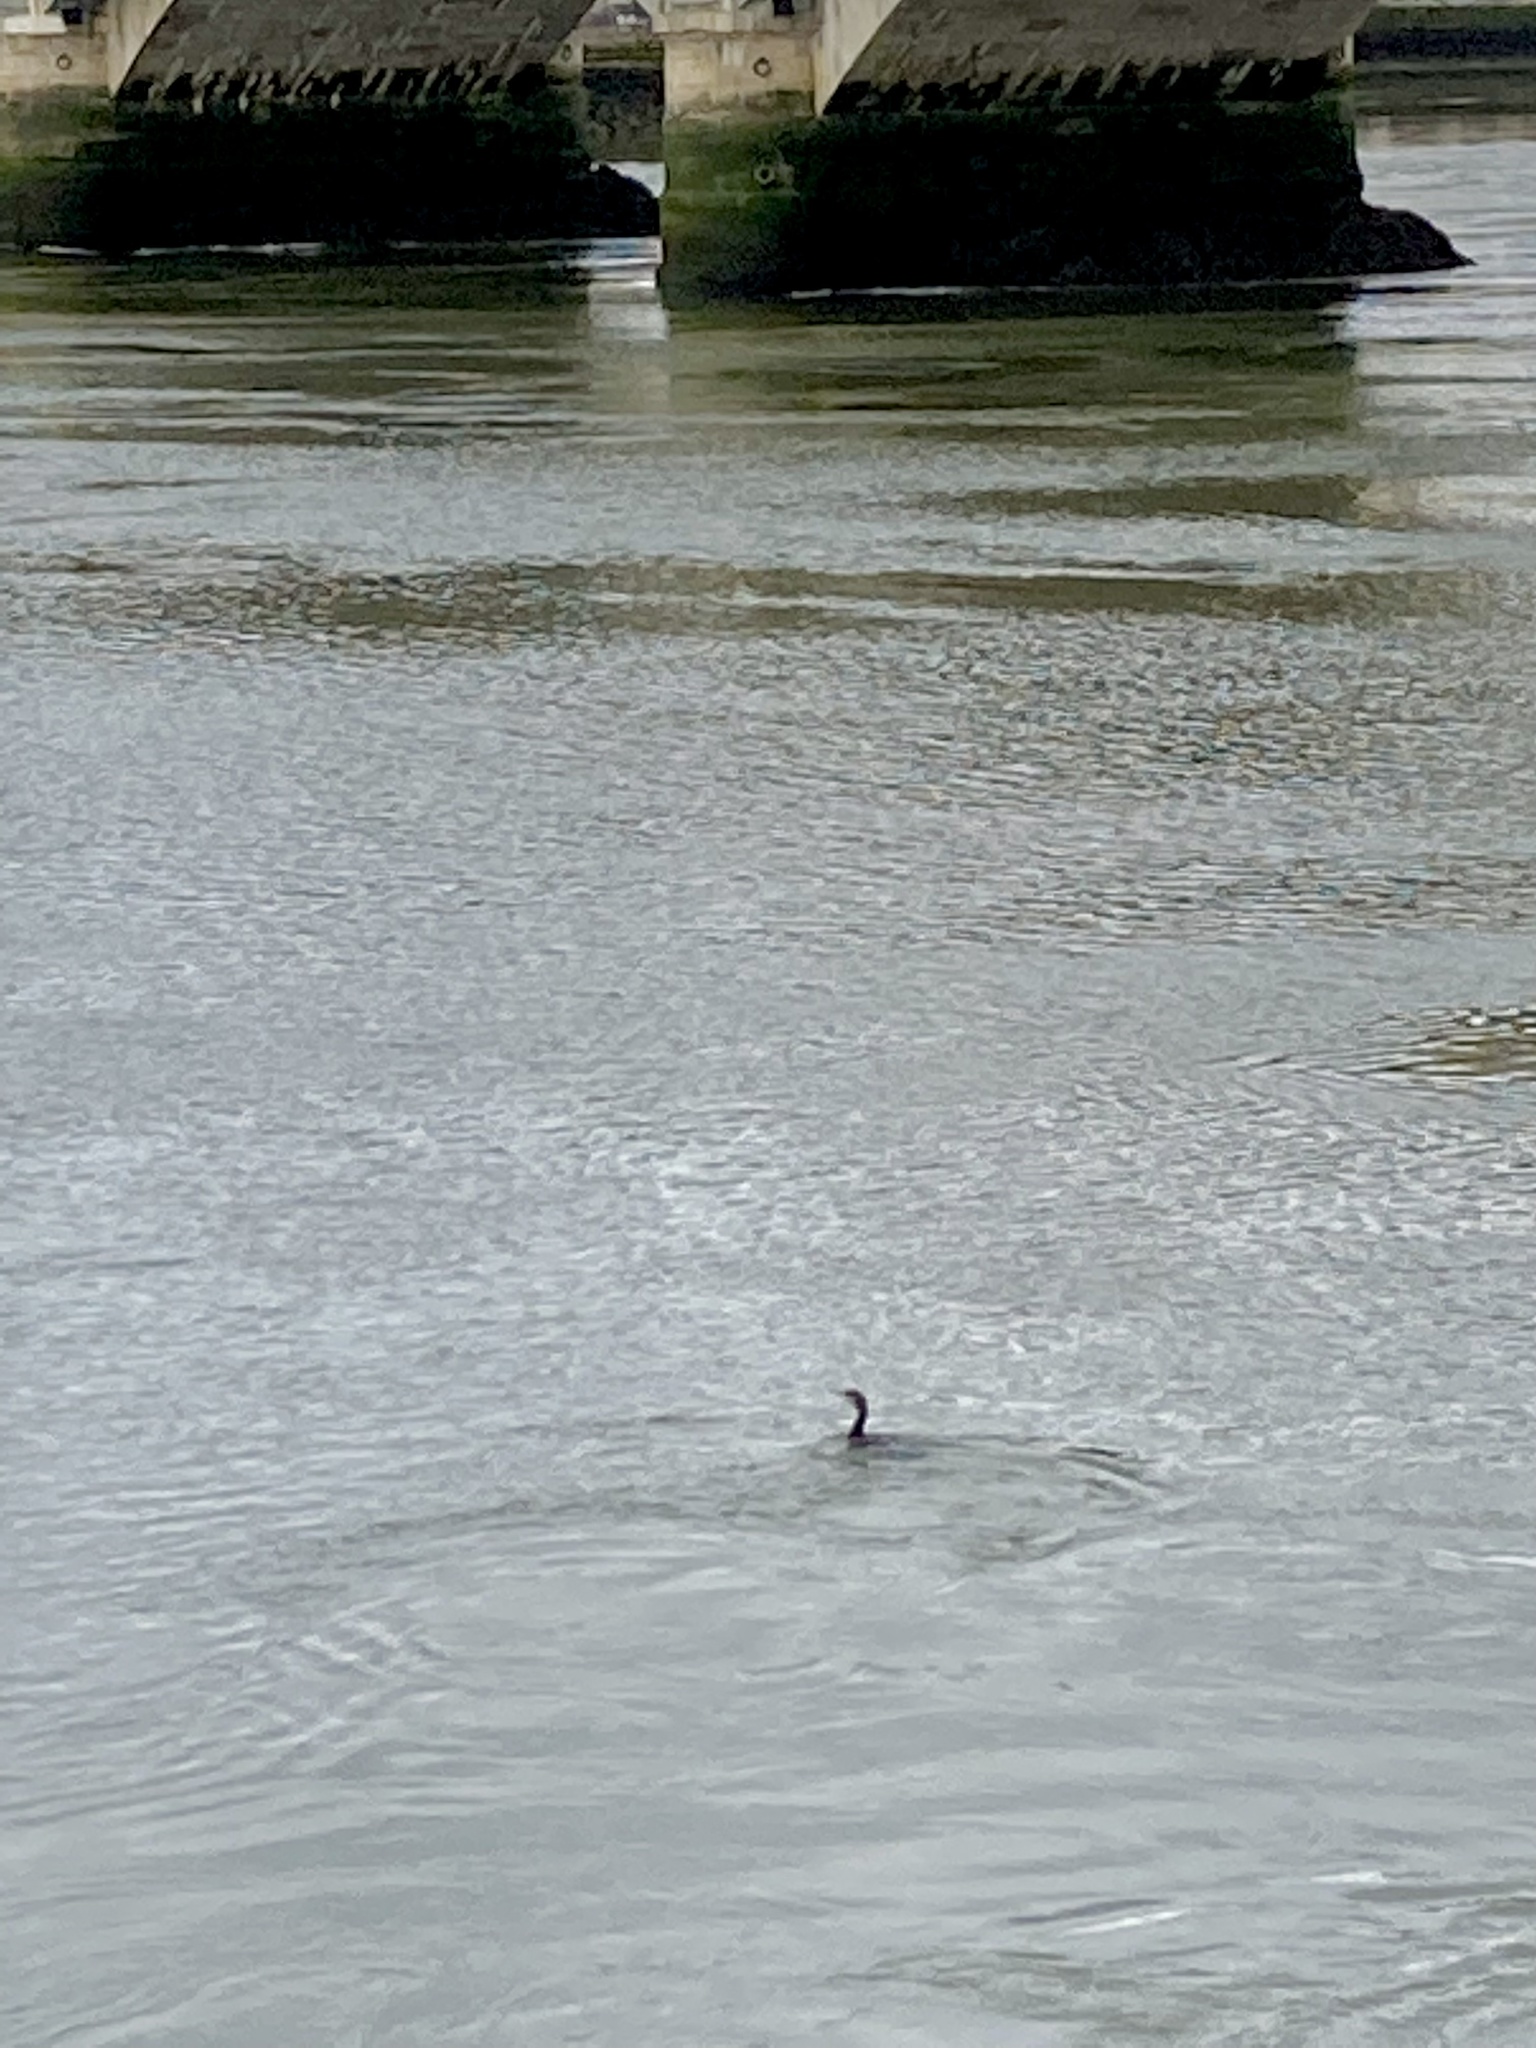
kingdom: Animalia
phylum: Chordata
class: Aves
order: Suliformes
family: Phalacrocoracidae
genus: Phalacrocorax
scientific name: Phalacrocorax carbo
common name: Great cormorant
